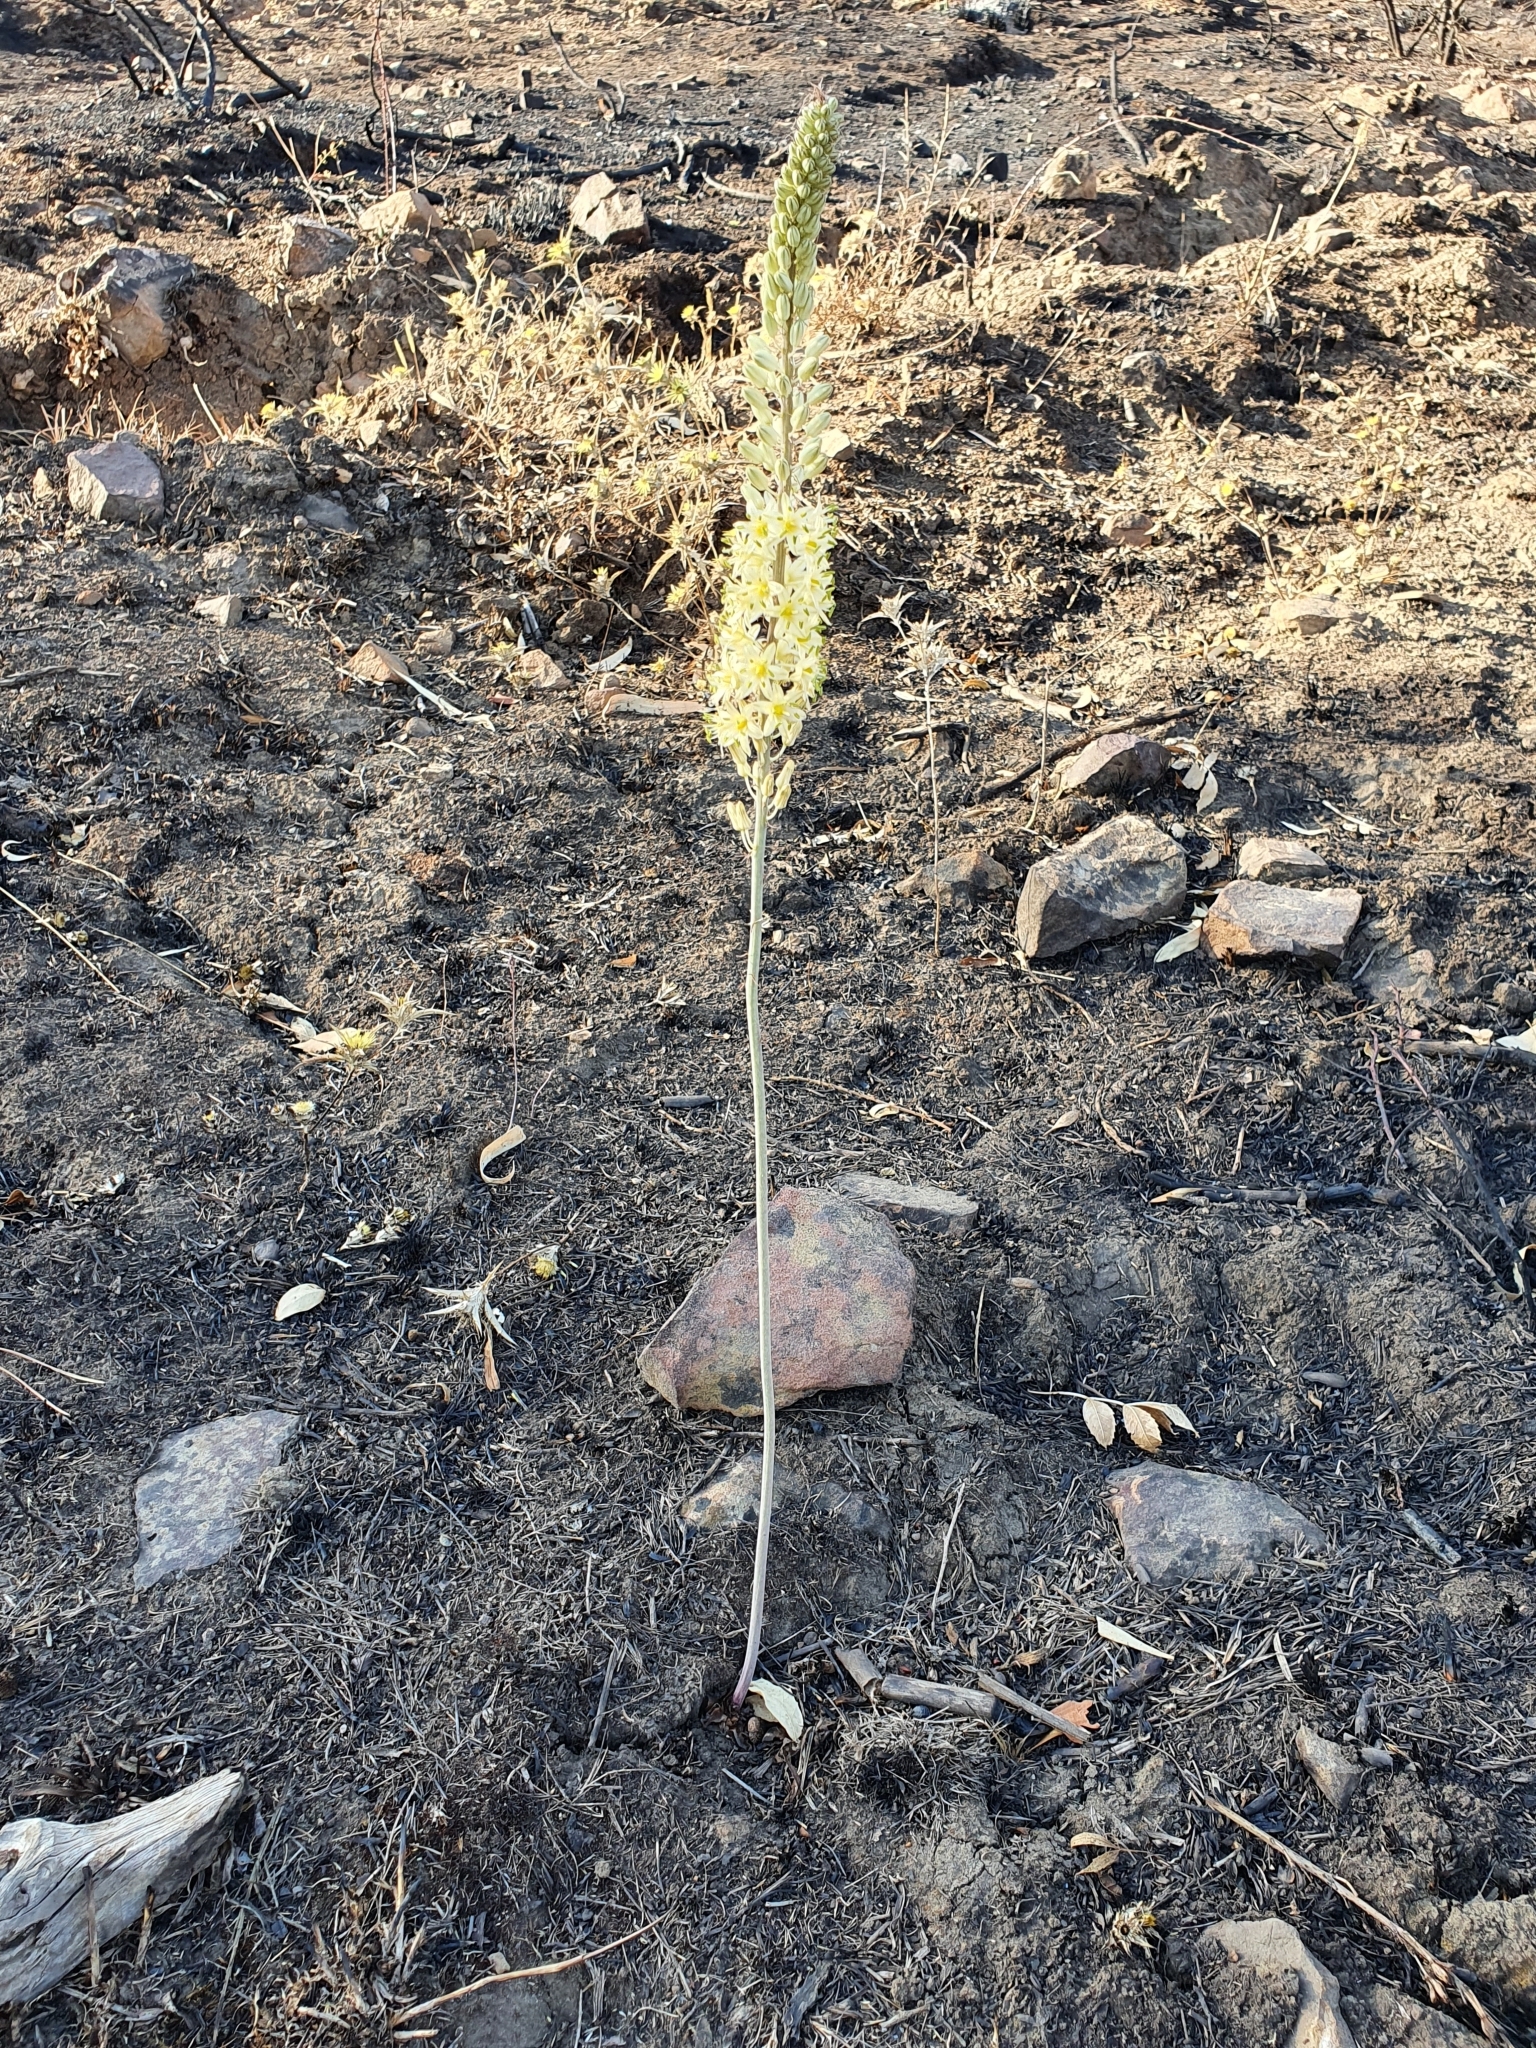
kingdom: Plantae
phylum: Tracheophyta
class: Liliopsida
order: Asparagales
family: Asparagaceae
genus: Drimia
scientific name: Drimia anthericoides
